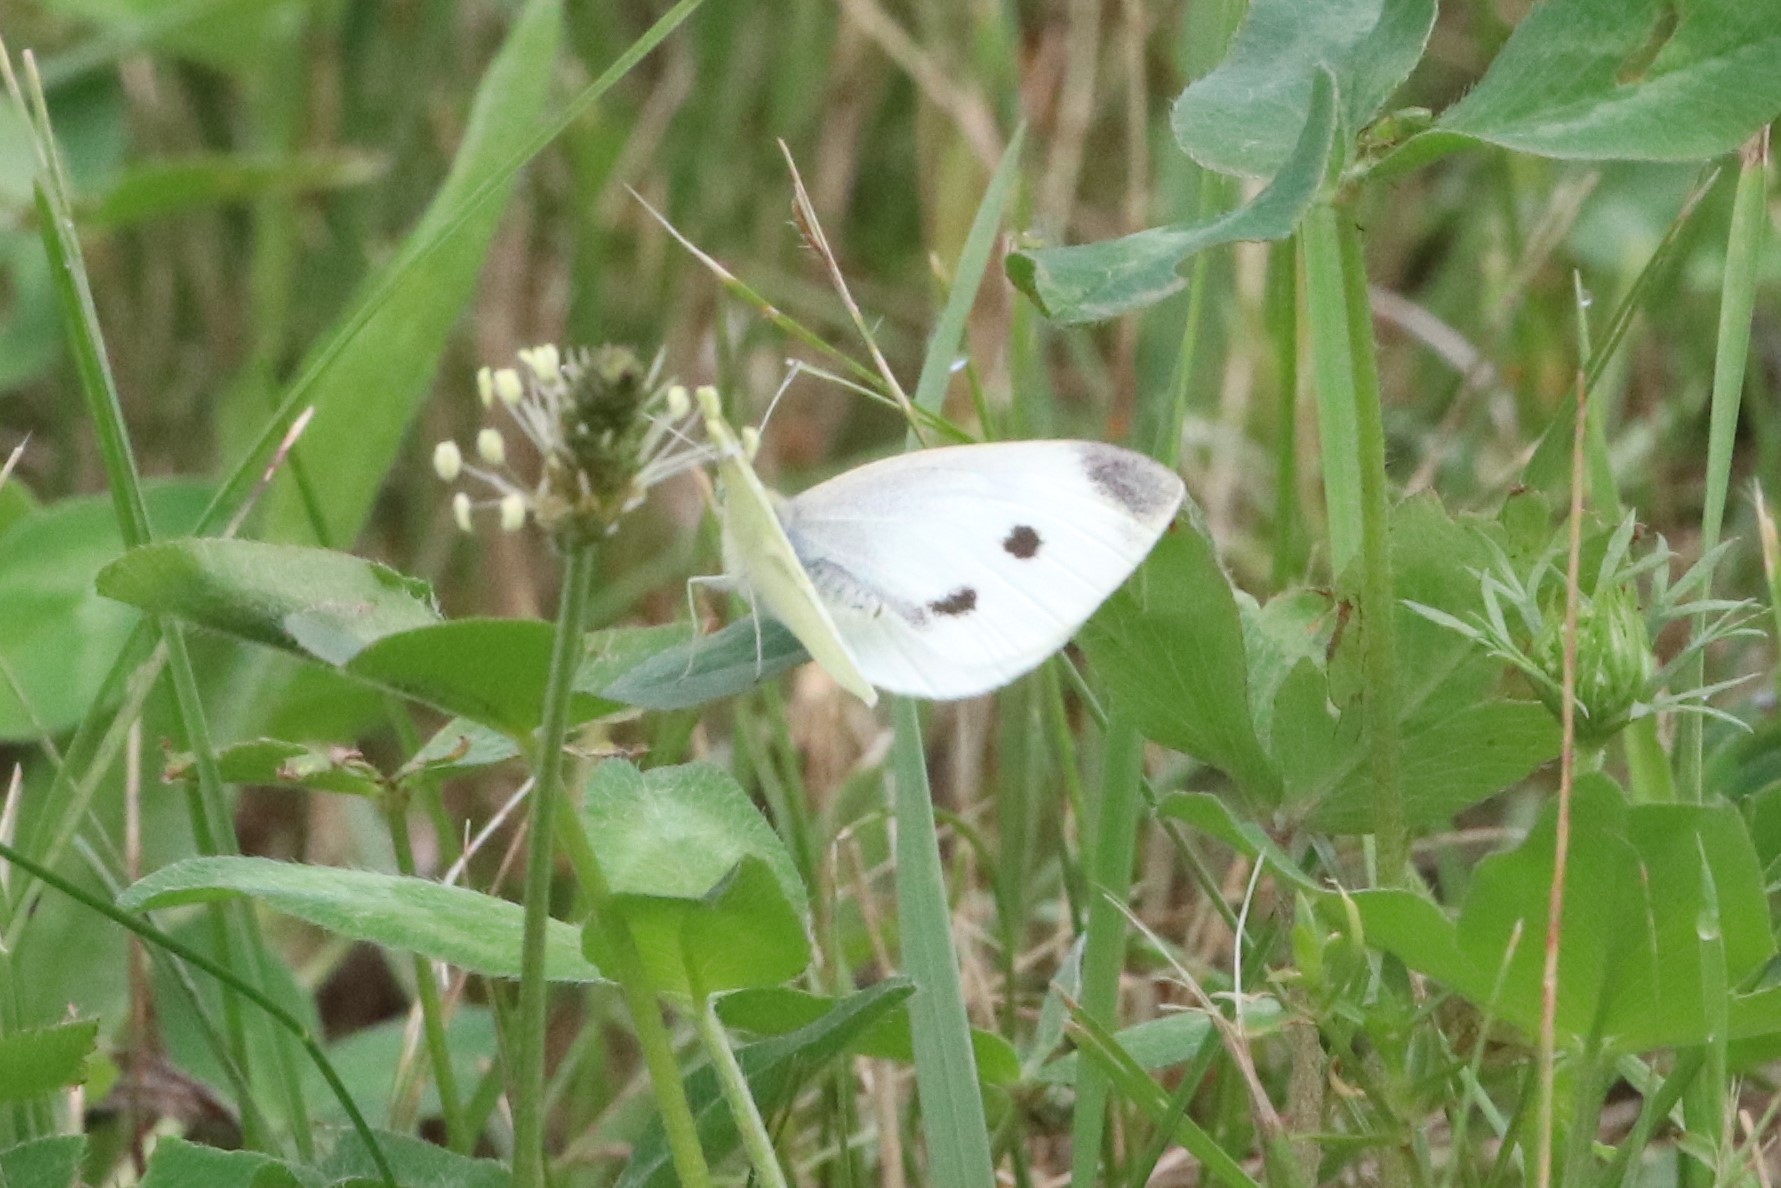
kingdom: Animalia
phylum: Arthropoda
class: Insecta
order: Lepidoptera
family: Pieridae
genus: Pieris
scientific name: Pieris rapae
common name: Small white
